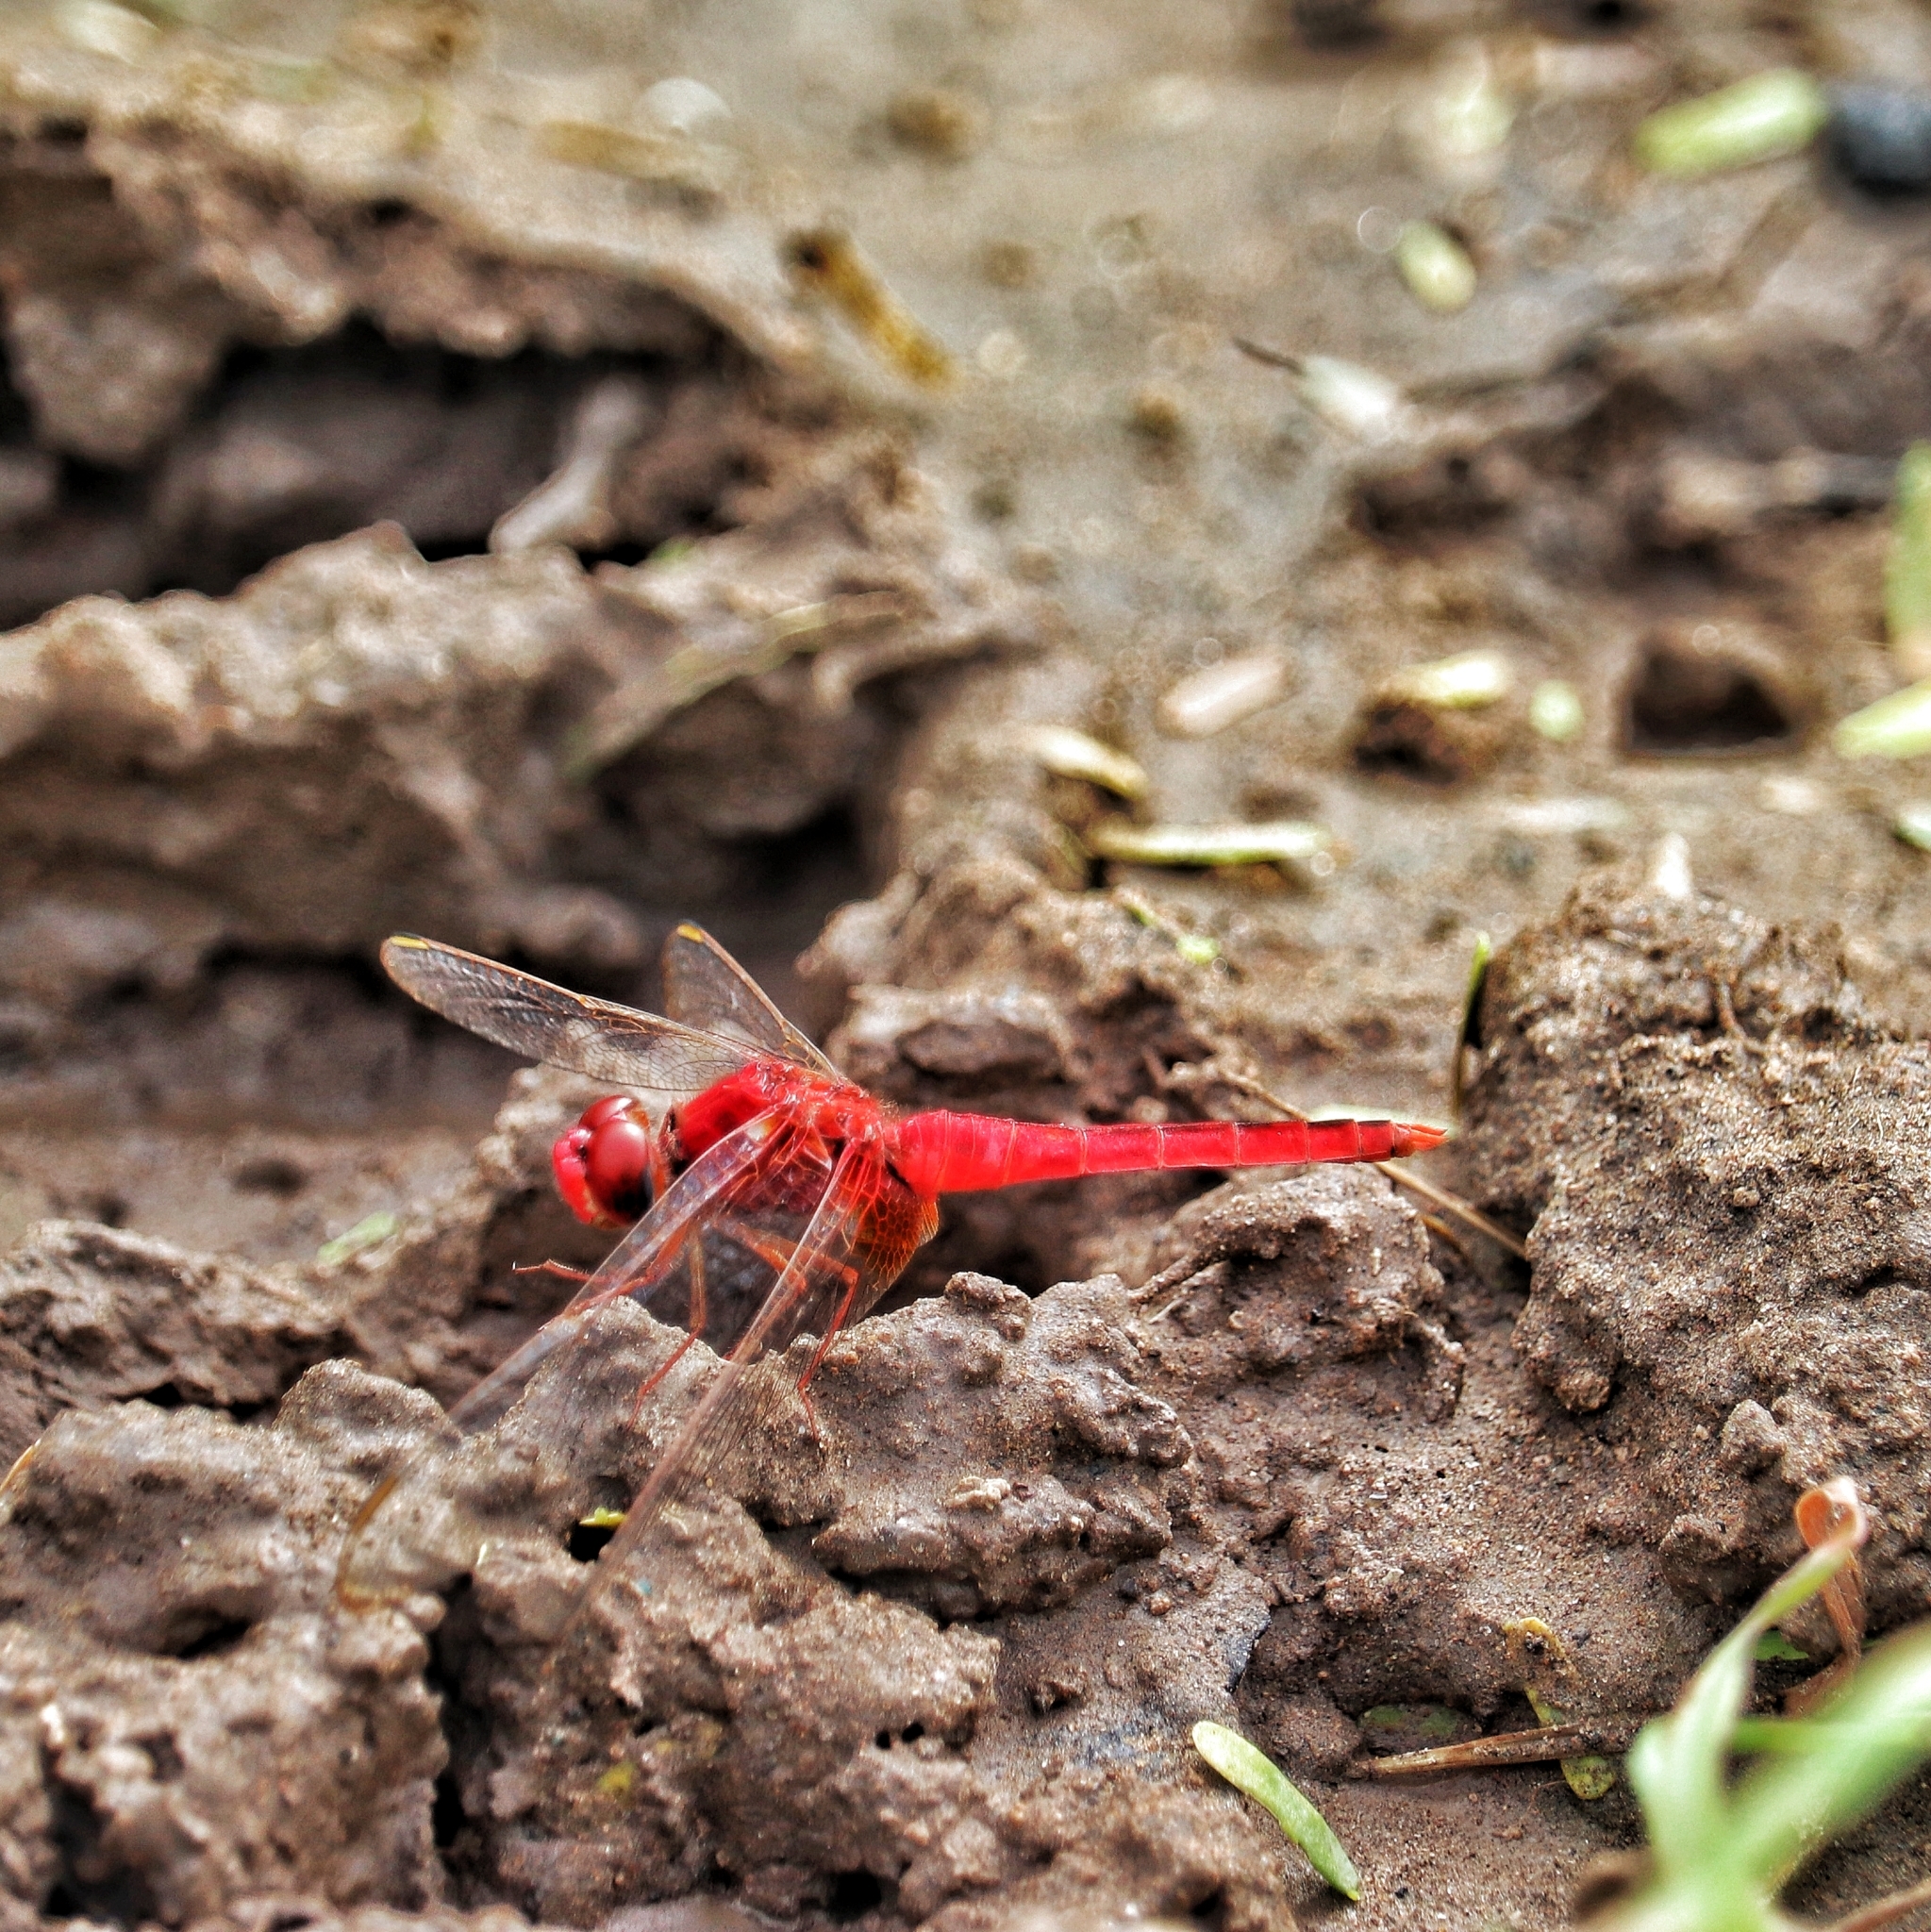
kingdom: Animalia
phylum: Arthropoda
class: Insecta
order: Odonata
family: Libellulidae
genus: Crocothemis
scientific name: Crocothemis servilia
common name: Scarlet skimmer
